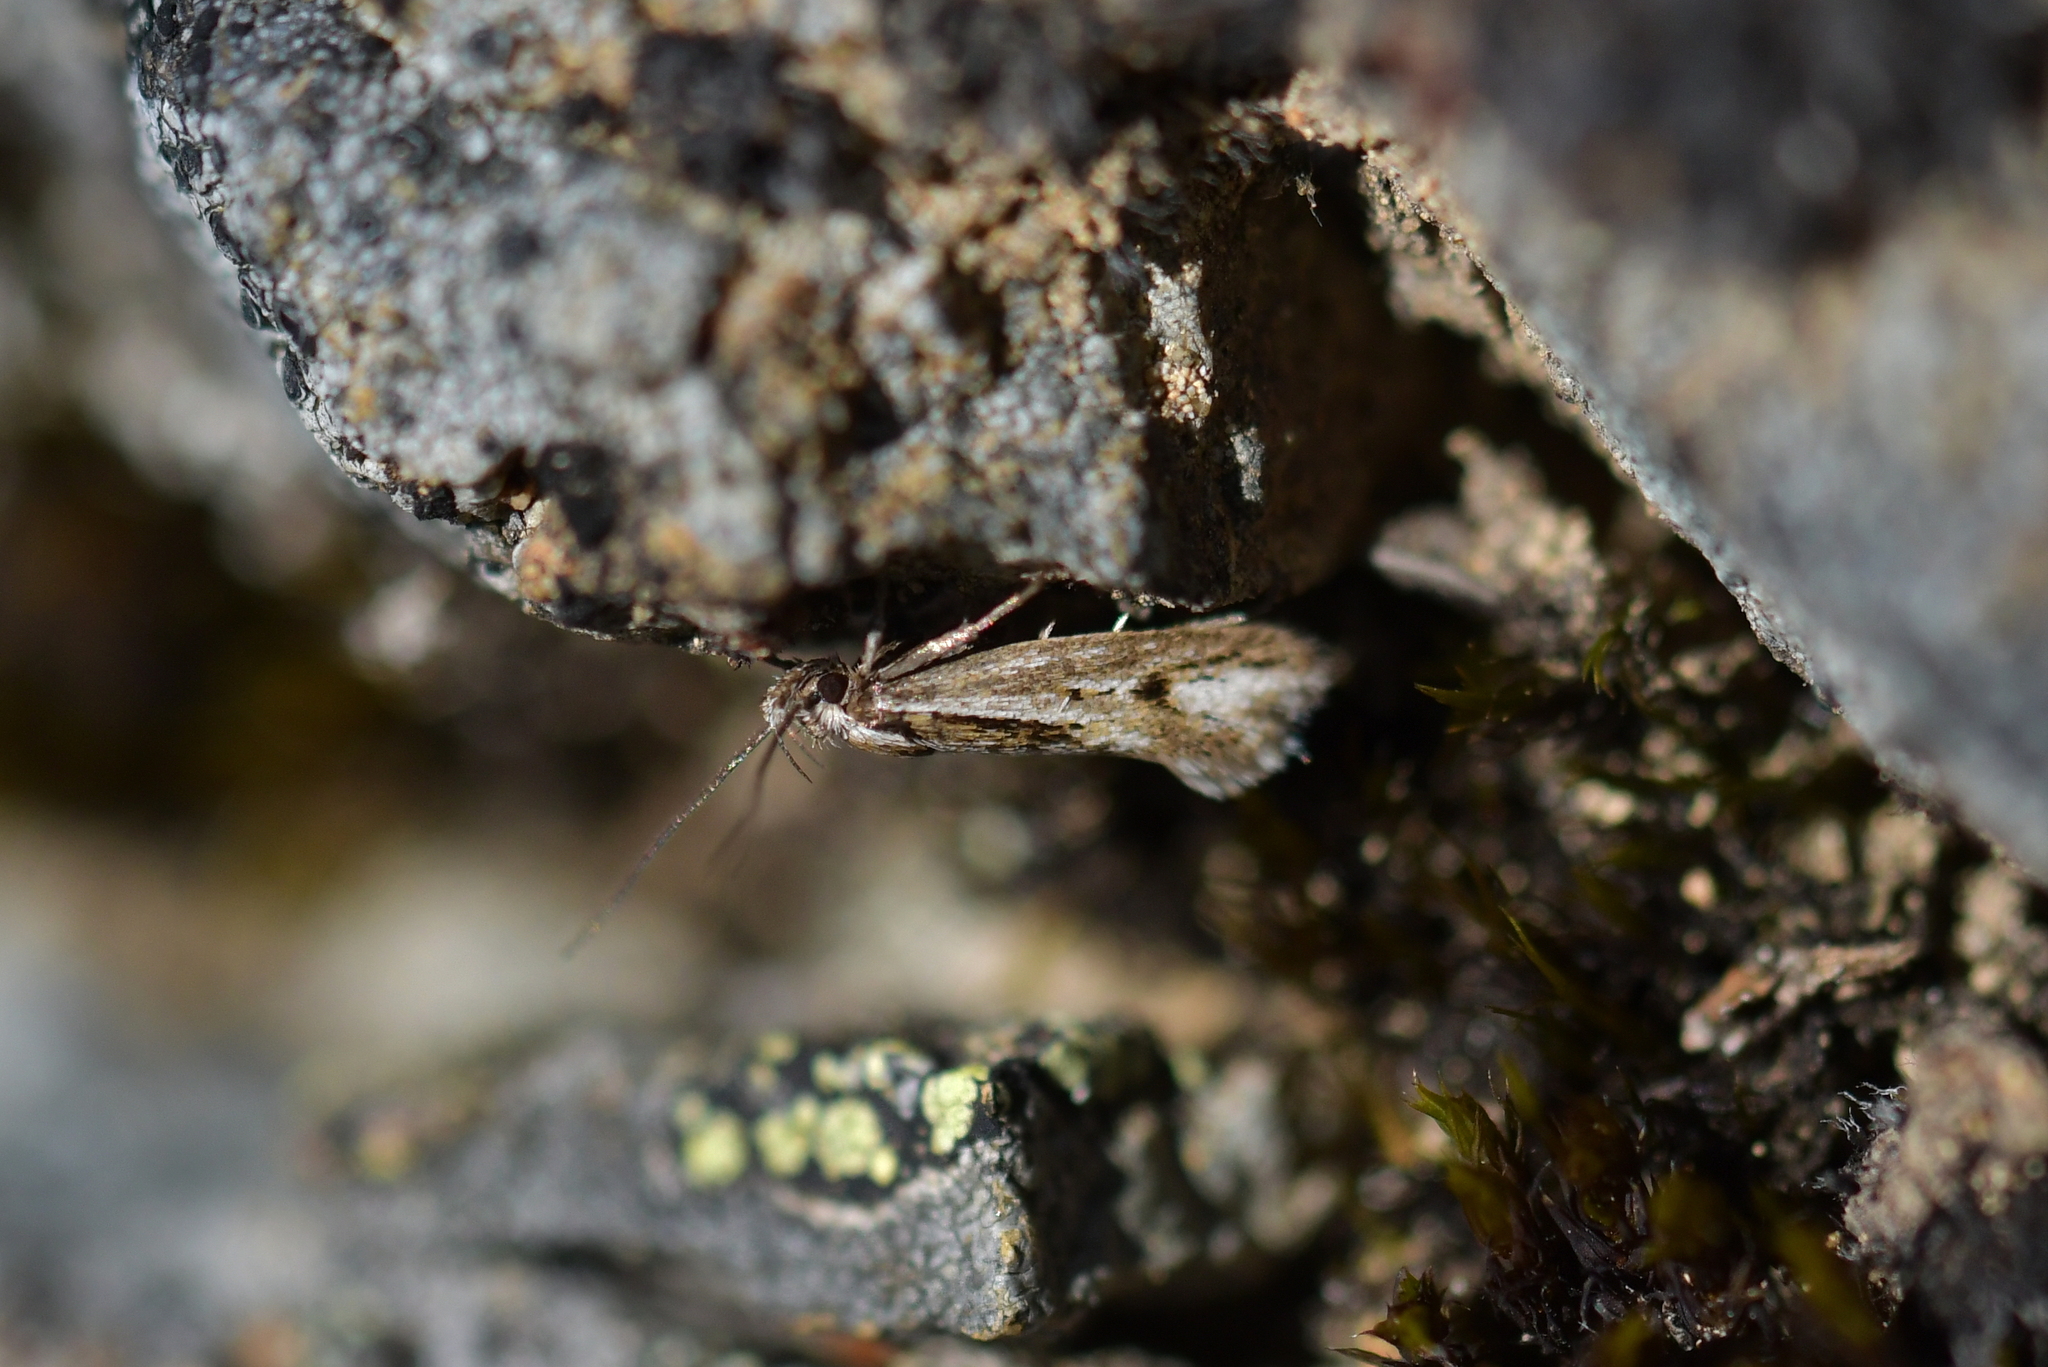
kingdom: Animalia
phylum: Arthropoda
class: Insecta
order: Lepidoptera
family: Oecophoridae
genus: Prepalla
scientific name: Prepalla
